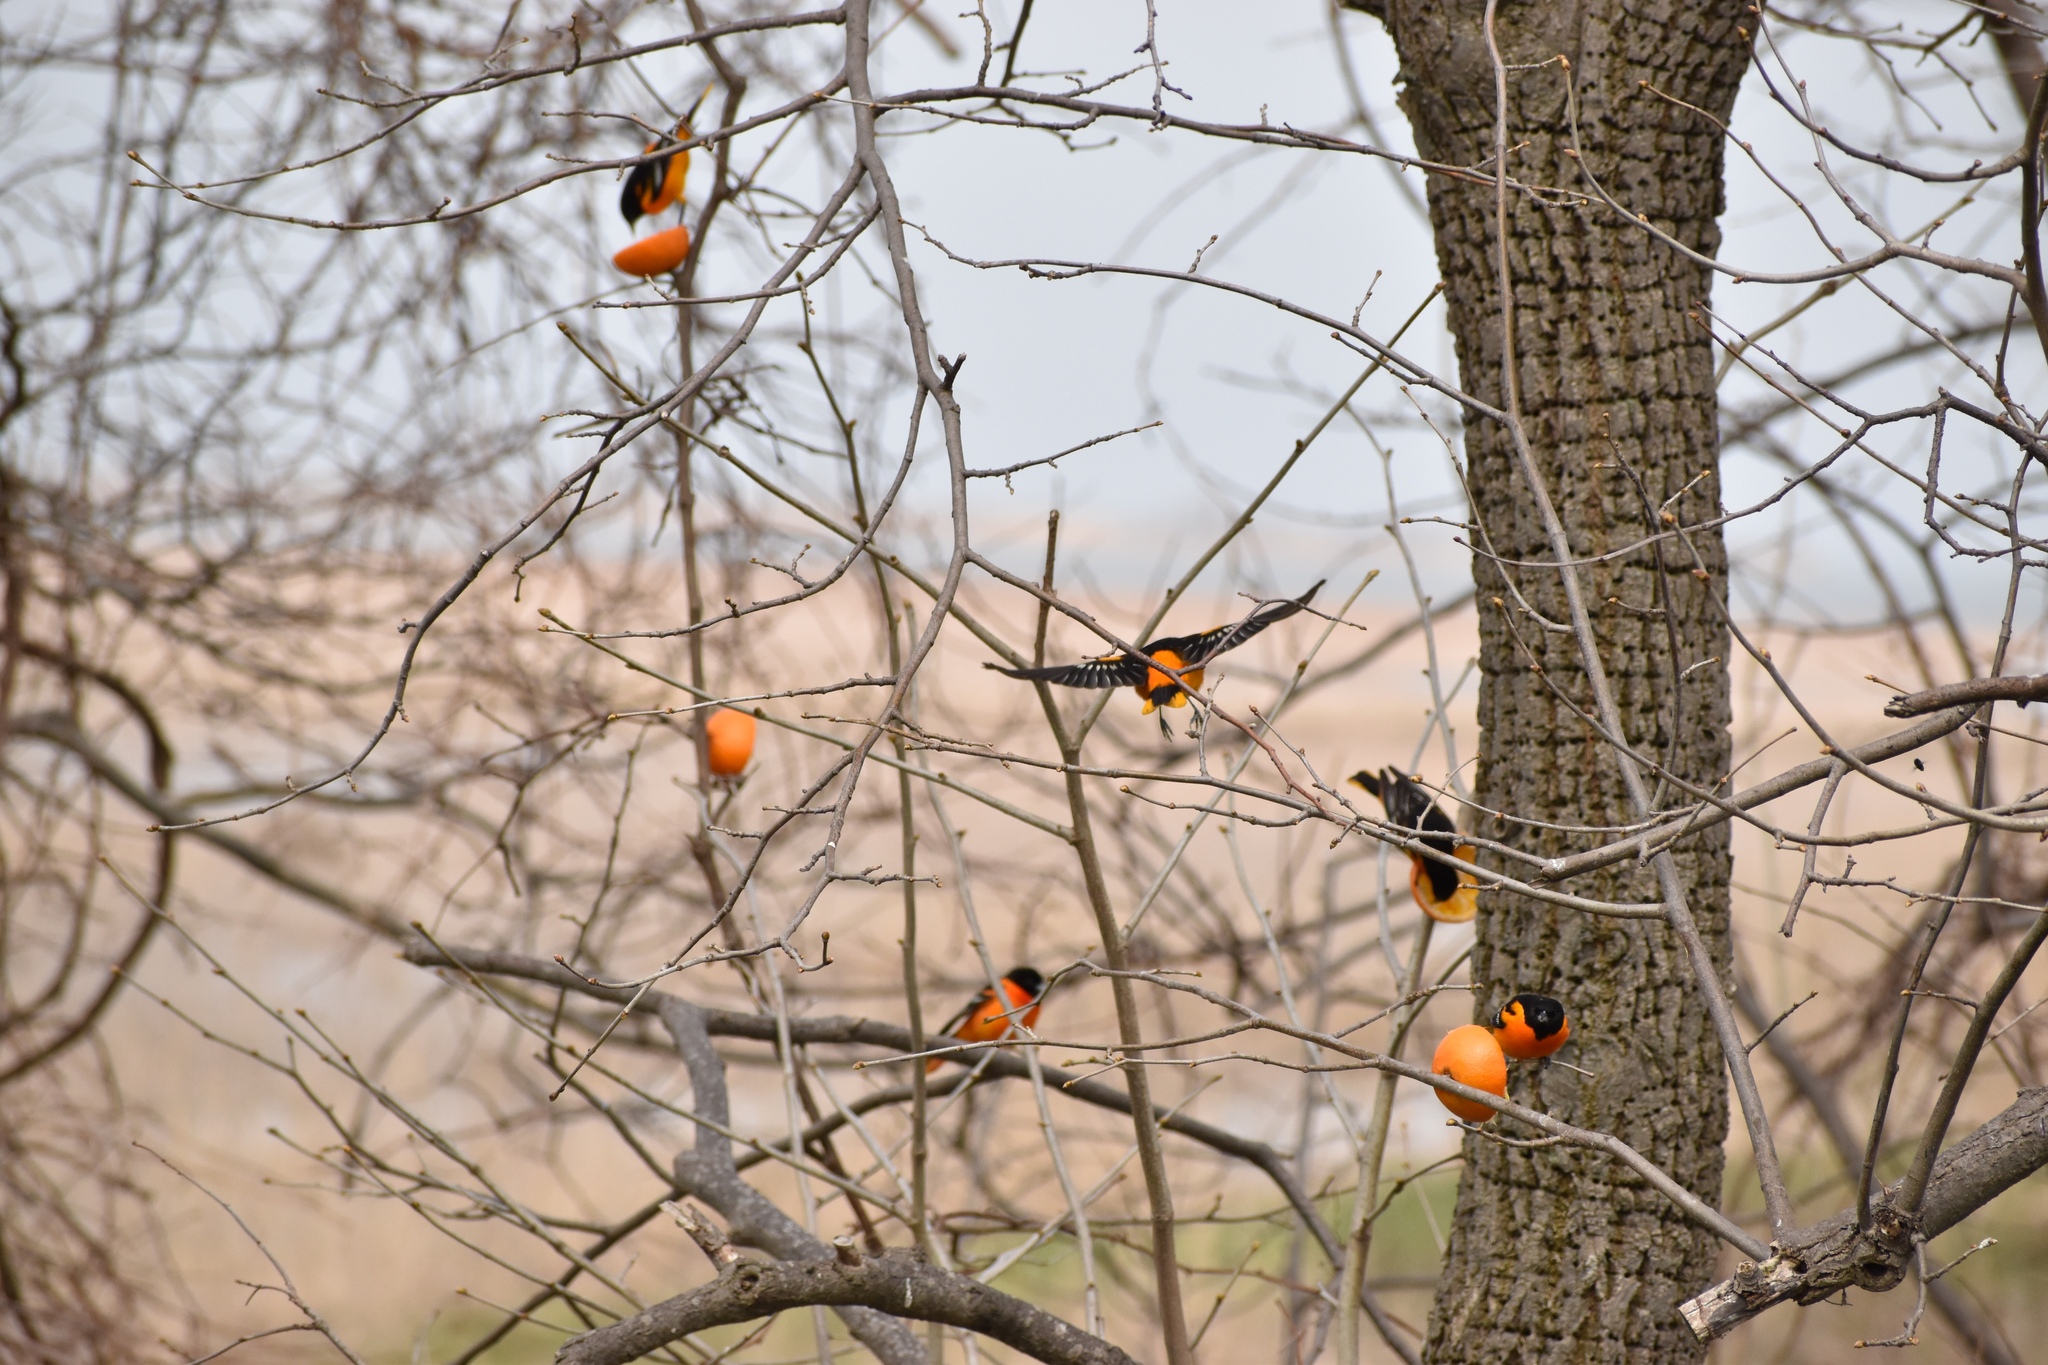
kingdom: Animalia
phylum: Chordata
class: Aves
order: Passeriformes
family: Icteridae
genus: Icterus
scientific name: Icterus galbula
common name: Baltimore oriole
